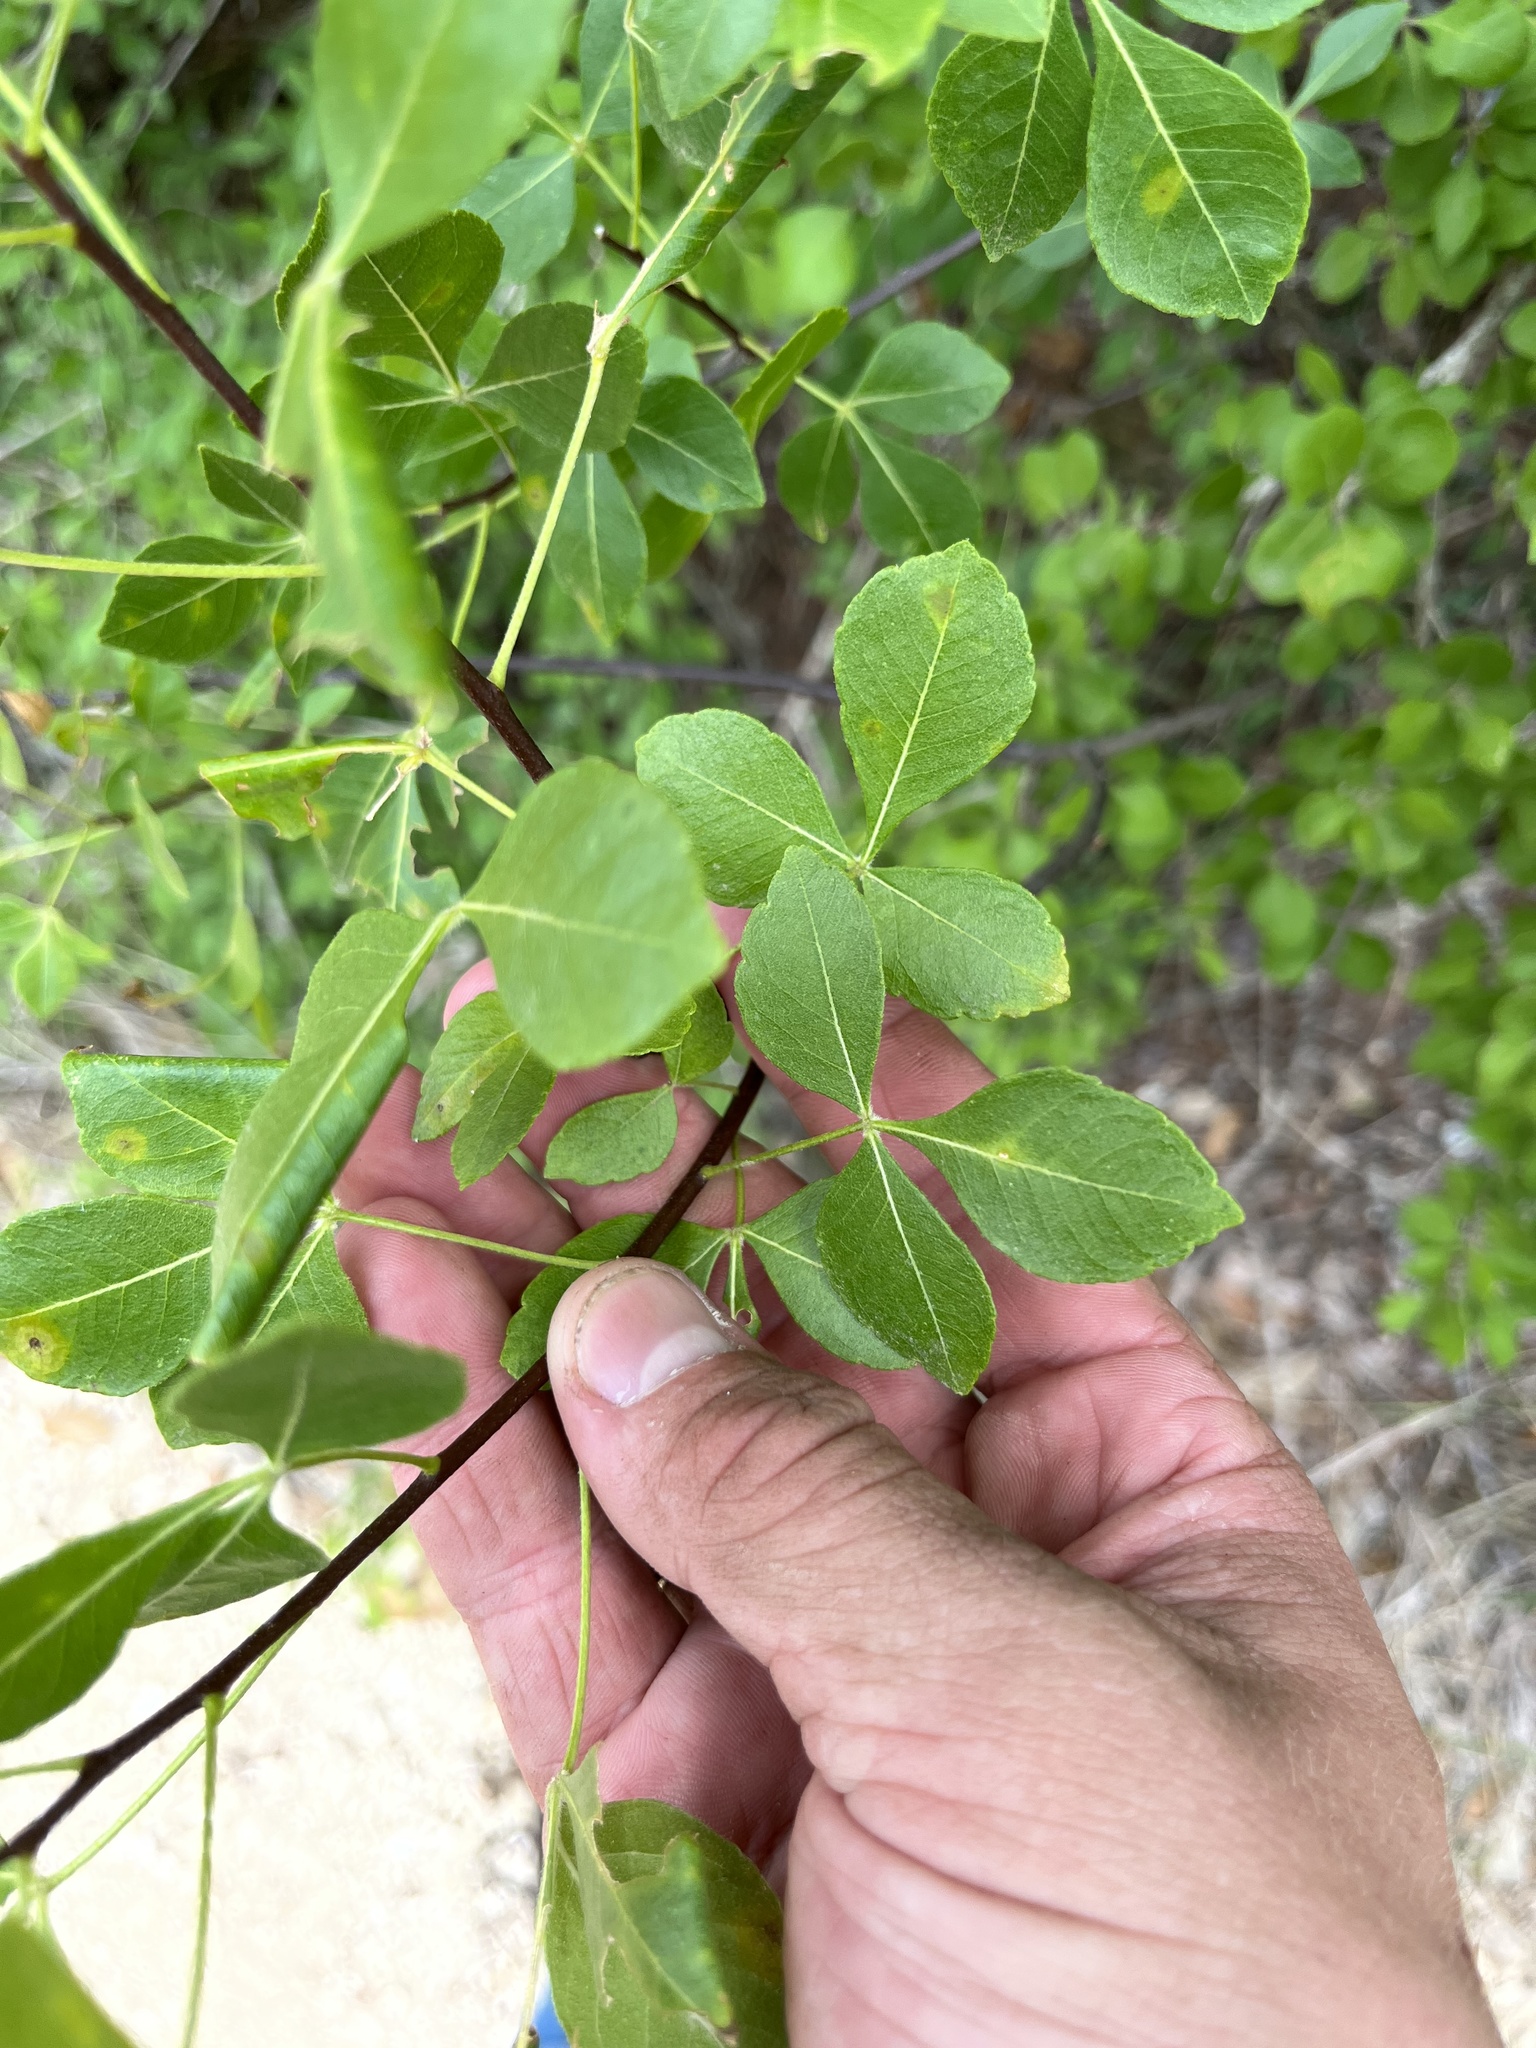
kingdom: Plantae
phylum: Tracheophyta
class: Magnoliopsida
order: Sapindales
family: Rutaceae
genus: Ptelea
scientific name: Ptelea trifoliata
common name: Common hop-tree
